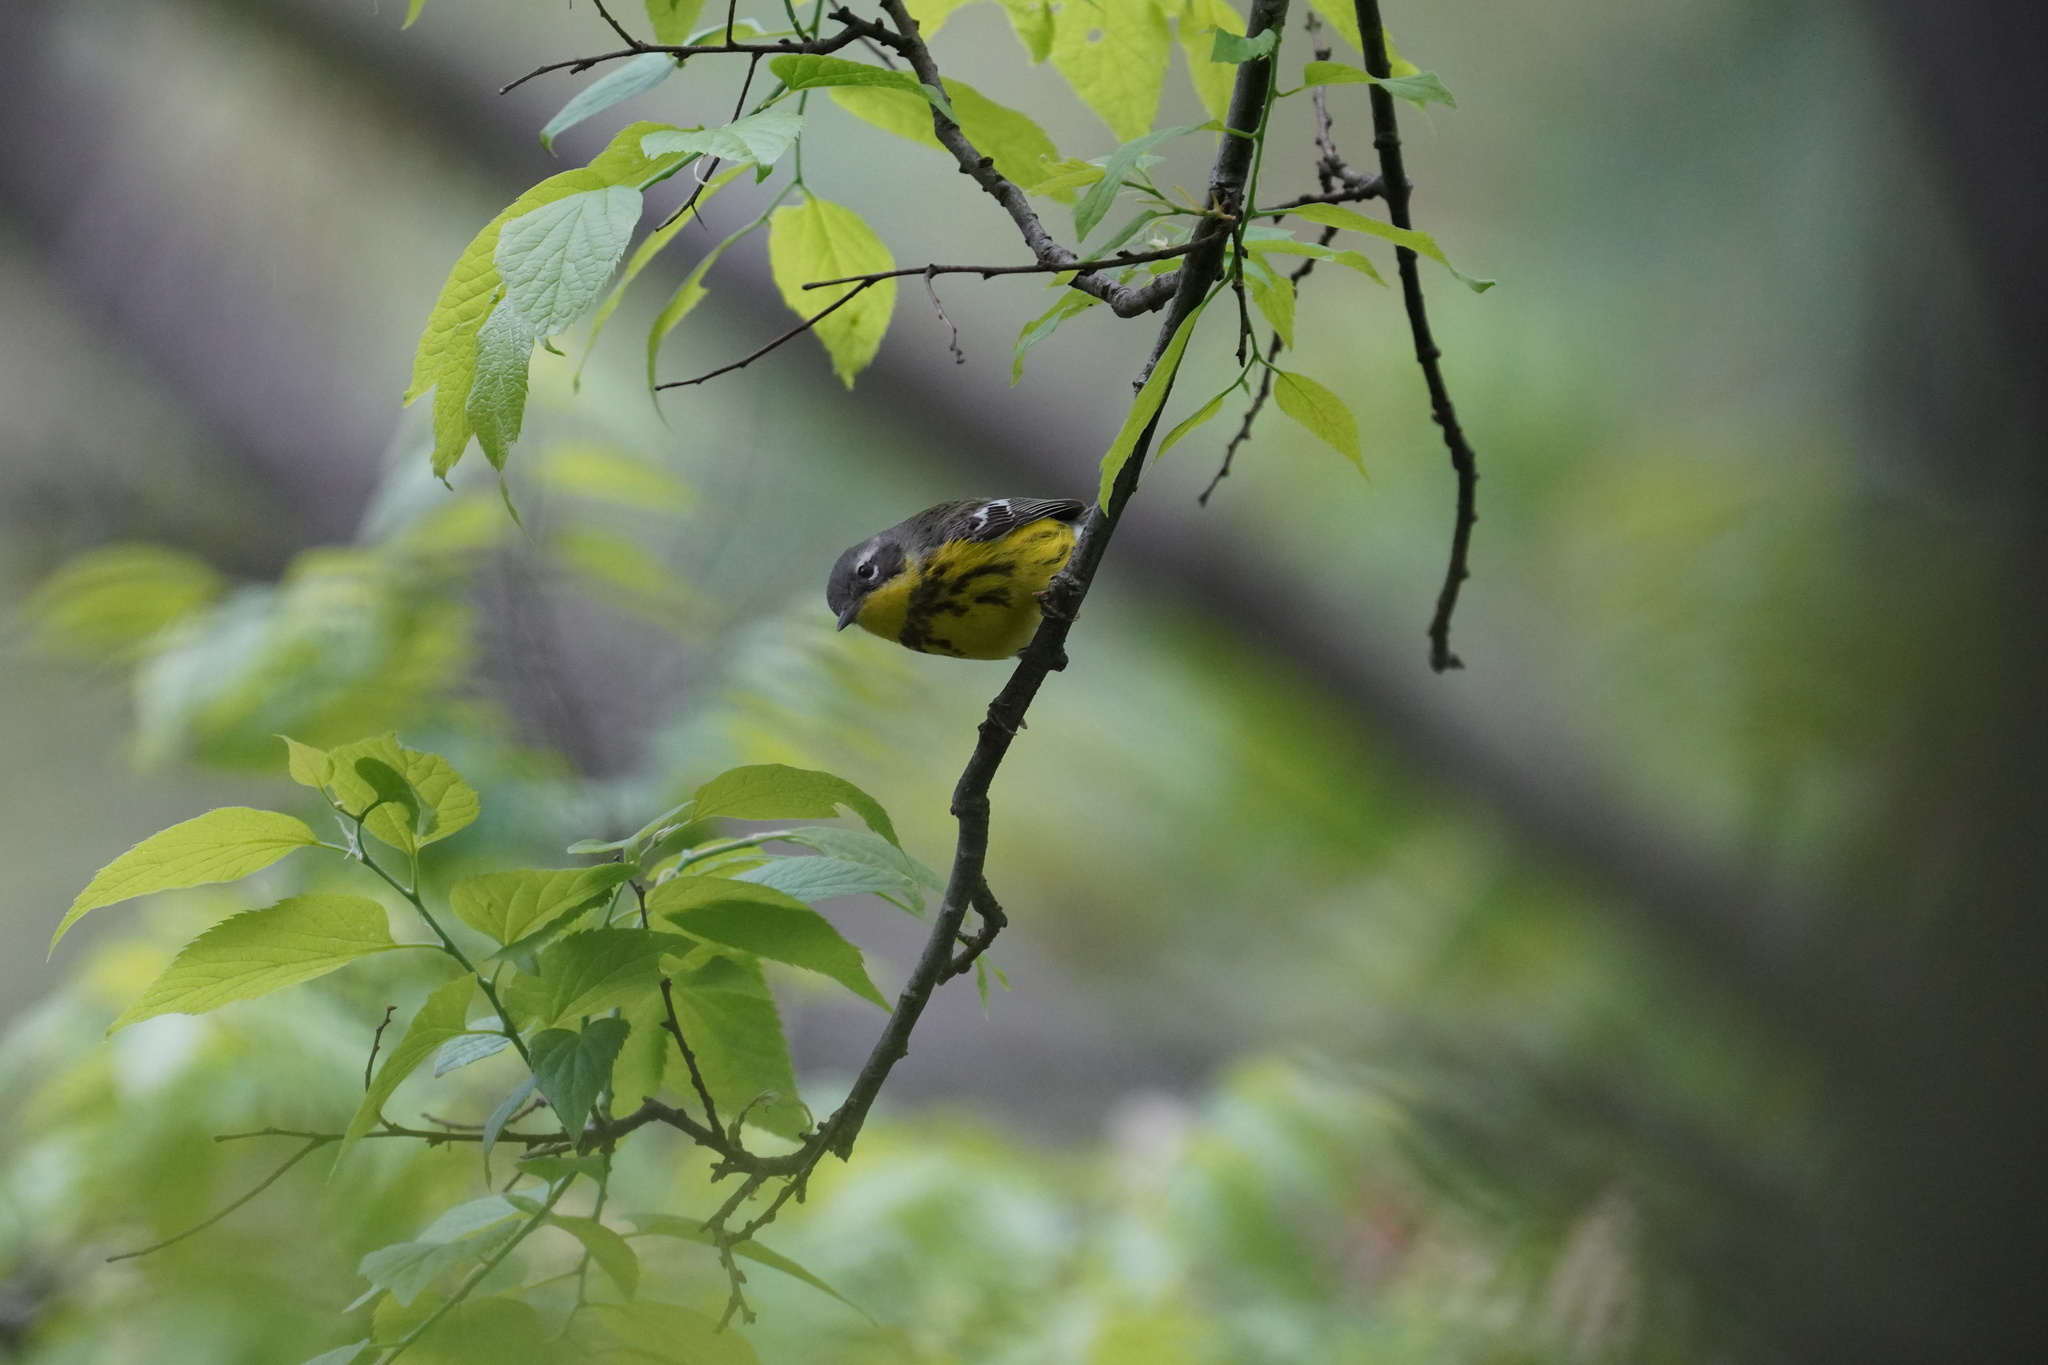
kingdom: Animalia
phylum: Chordata
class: Aves
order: Passeriformes
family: Parulidae
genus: Setophaga
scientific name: Setophaga magnolia
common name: Magnolia warbler
